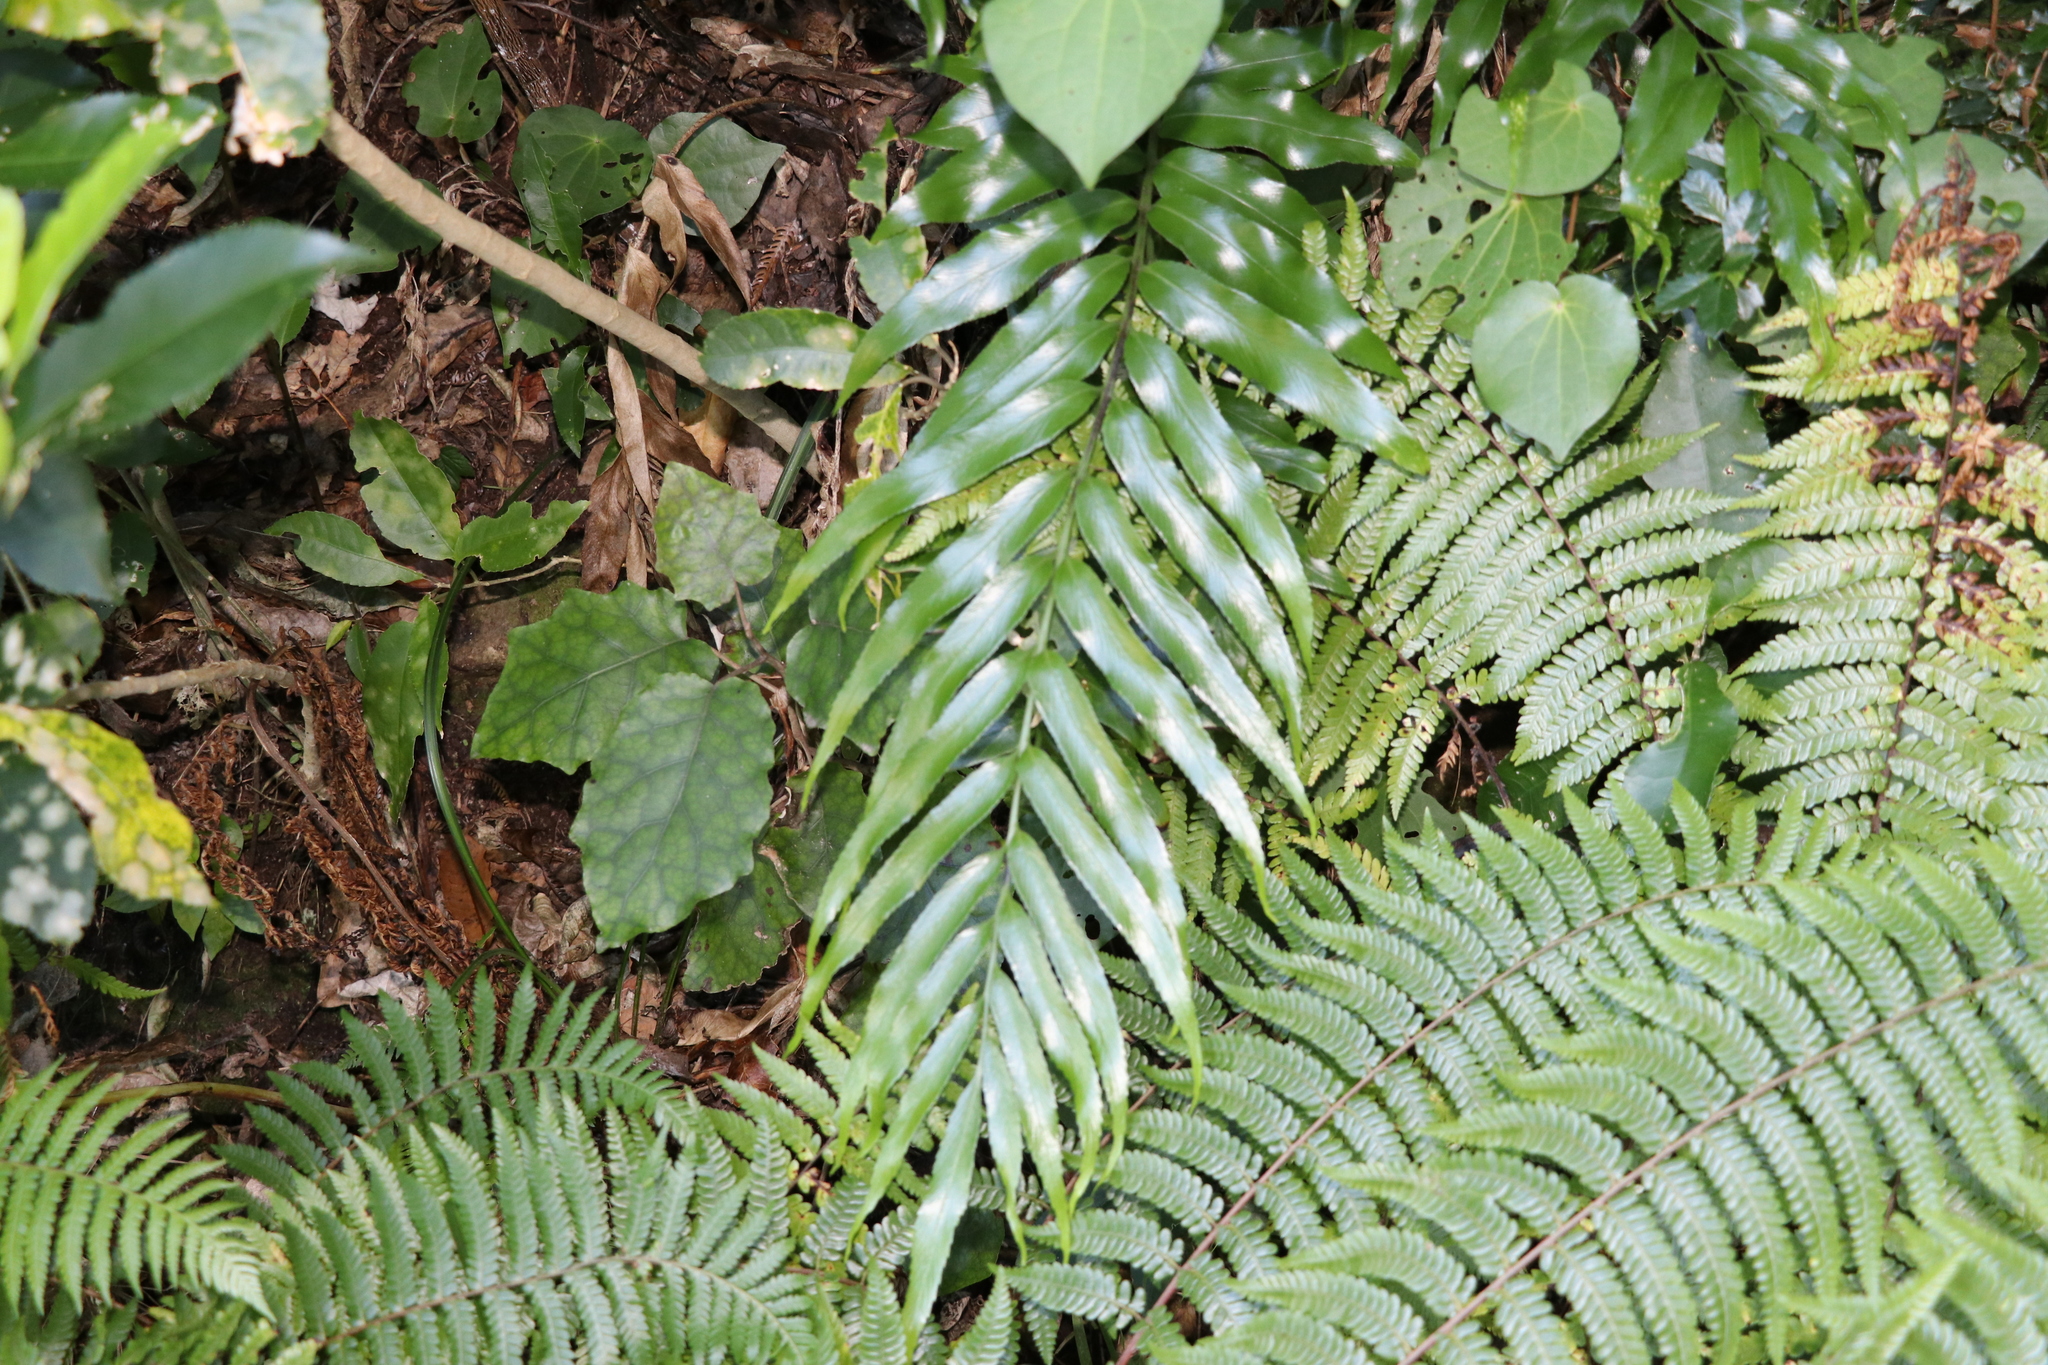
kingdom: Plantae
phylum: Tracheophyta
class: Polypodiopsida
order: Polypodiales
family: Aspleniaceae
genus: Asplenium
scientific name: Asplenium oblongifolium
